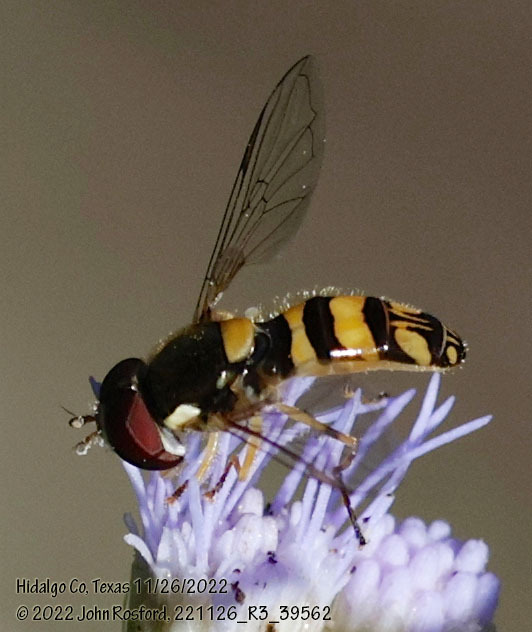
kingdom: Animalia
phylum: Arthropoda
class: Insecta
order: Diptera
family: Syrphidae
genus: Allograpta
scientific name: Allograpta exotica
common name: Syrphid fly
